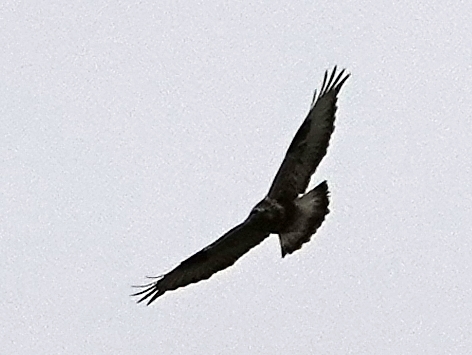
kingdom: Animalia
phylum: Chordata
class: Aves
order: Accipitriformes
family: Accipitridae
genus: Buteo
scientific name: Buteo lagopus
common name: Rough-legged buzzard
